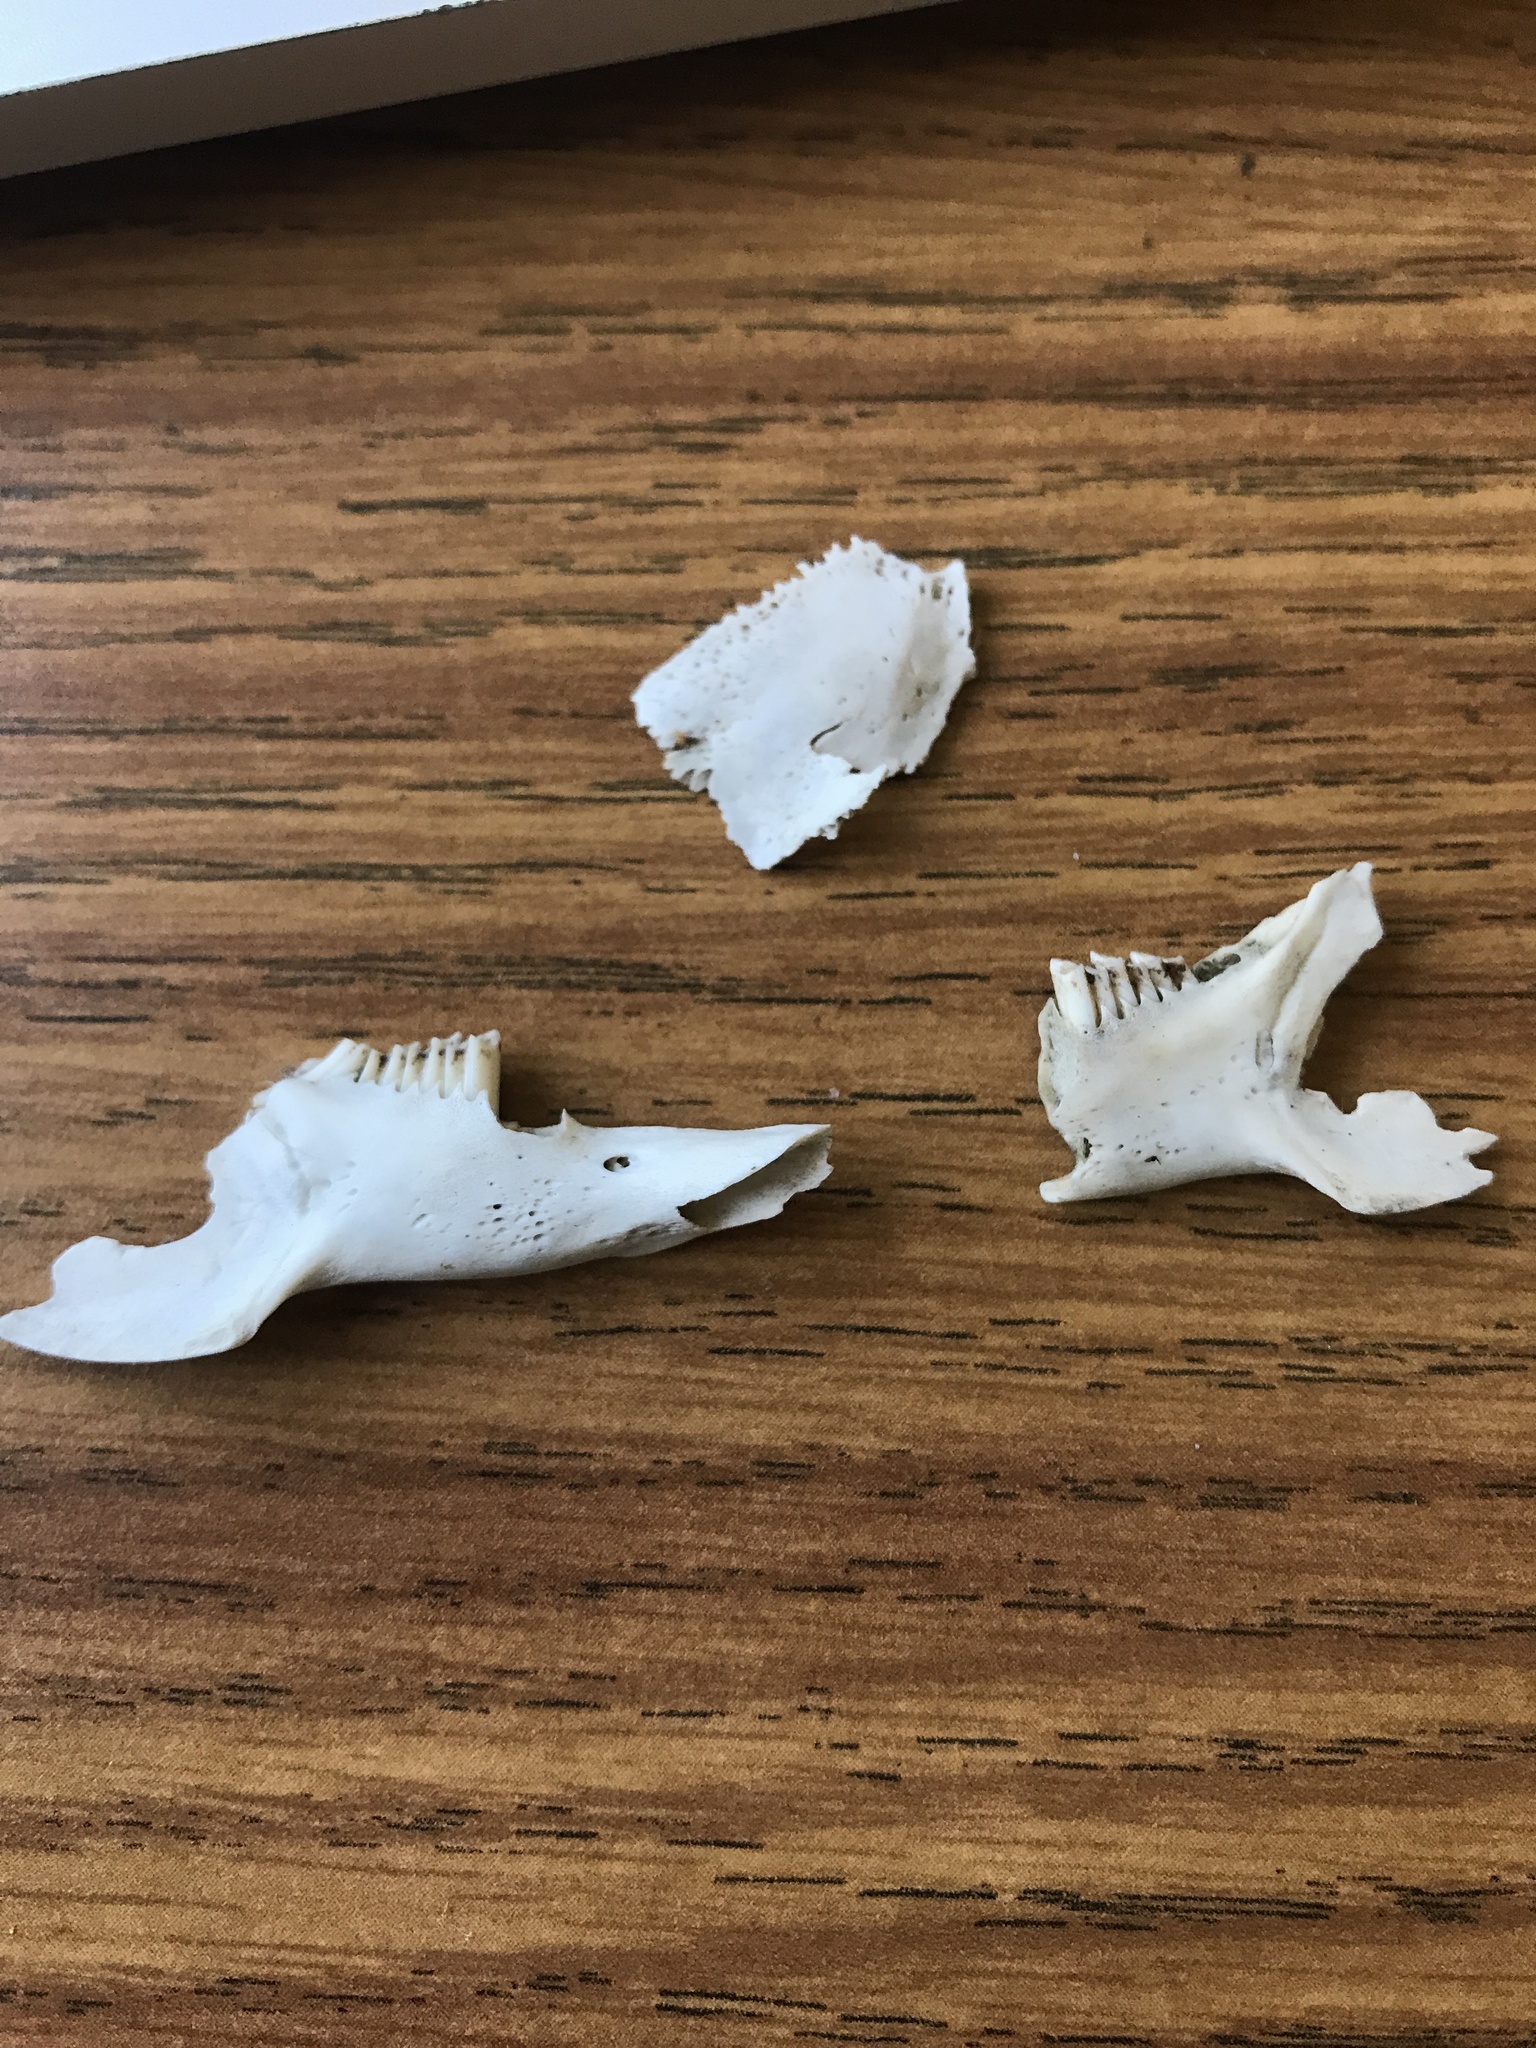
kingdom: Animalia
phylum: Chordata
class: Mammalia
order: Lagomorpha
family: Leporidae
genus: Sylvilagus
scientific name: Sylvilagus floridanus
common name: Eastern cottontail
